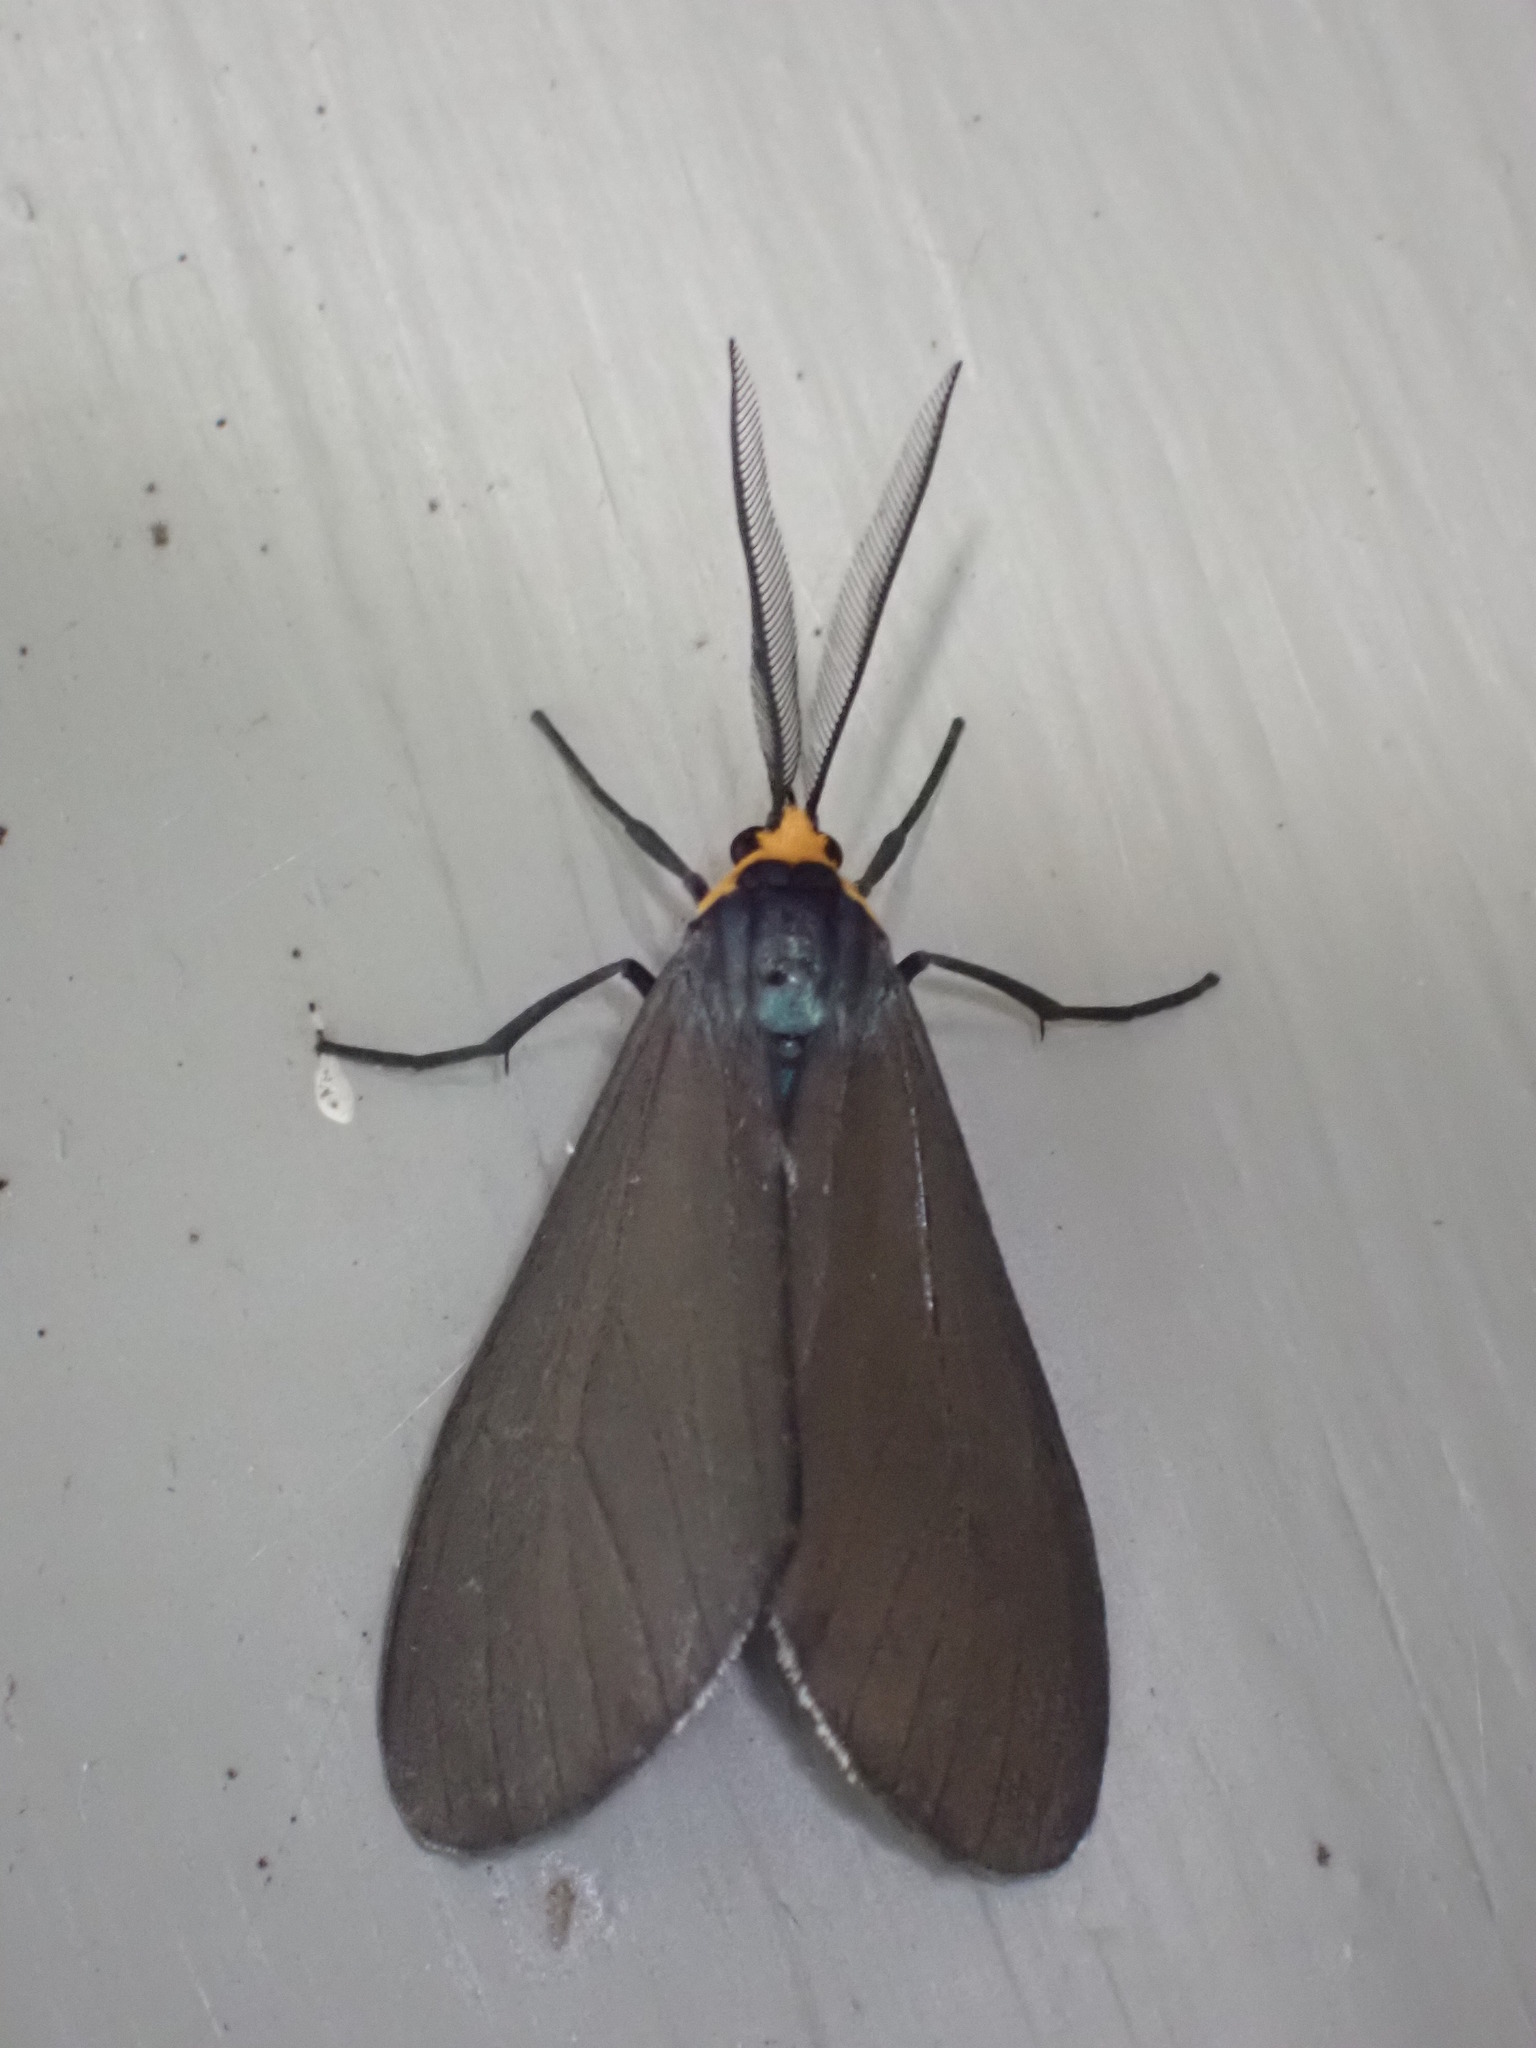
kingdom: Animalia
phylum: Arthropoda
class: Insecta
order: Lepidoptera
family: Erebidae
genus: Ctenucha
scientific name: Ctenucha virginica
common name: Virginia ctenucha moth
